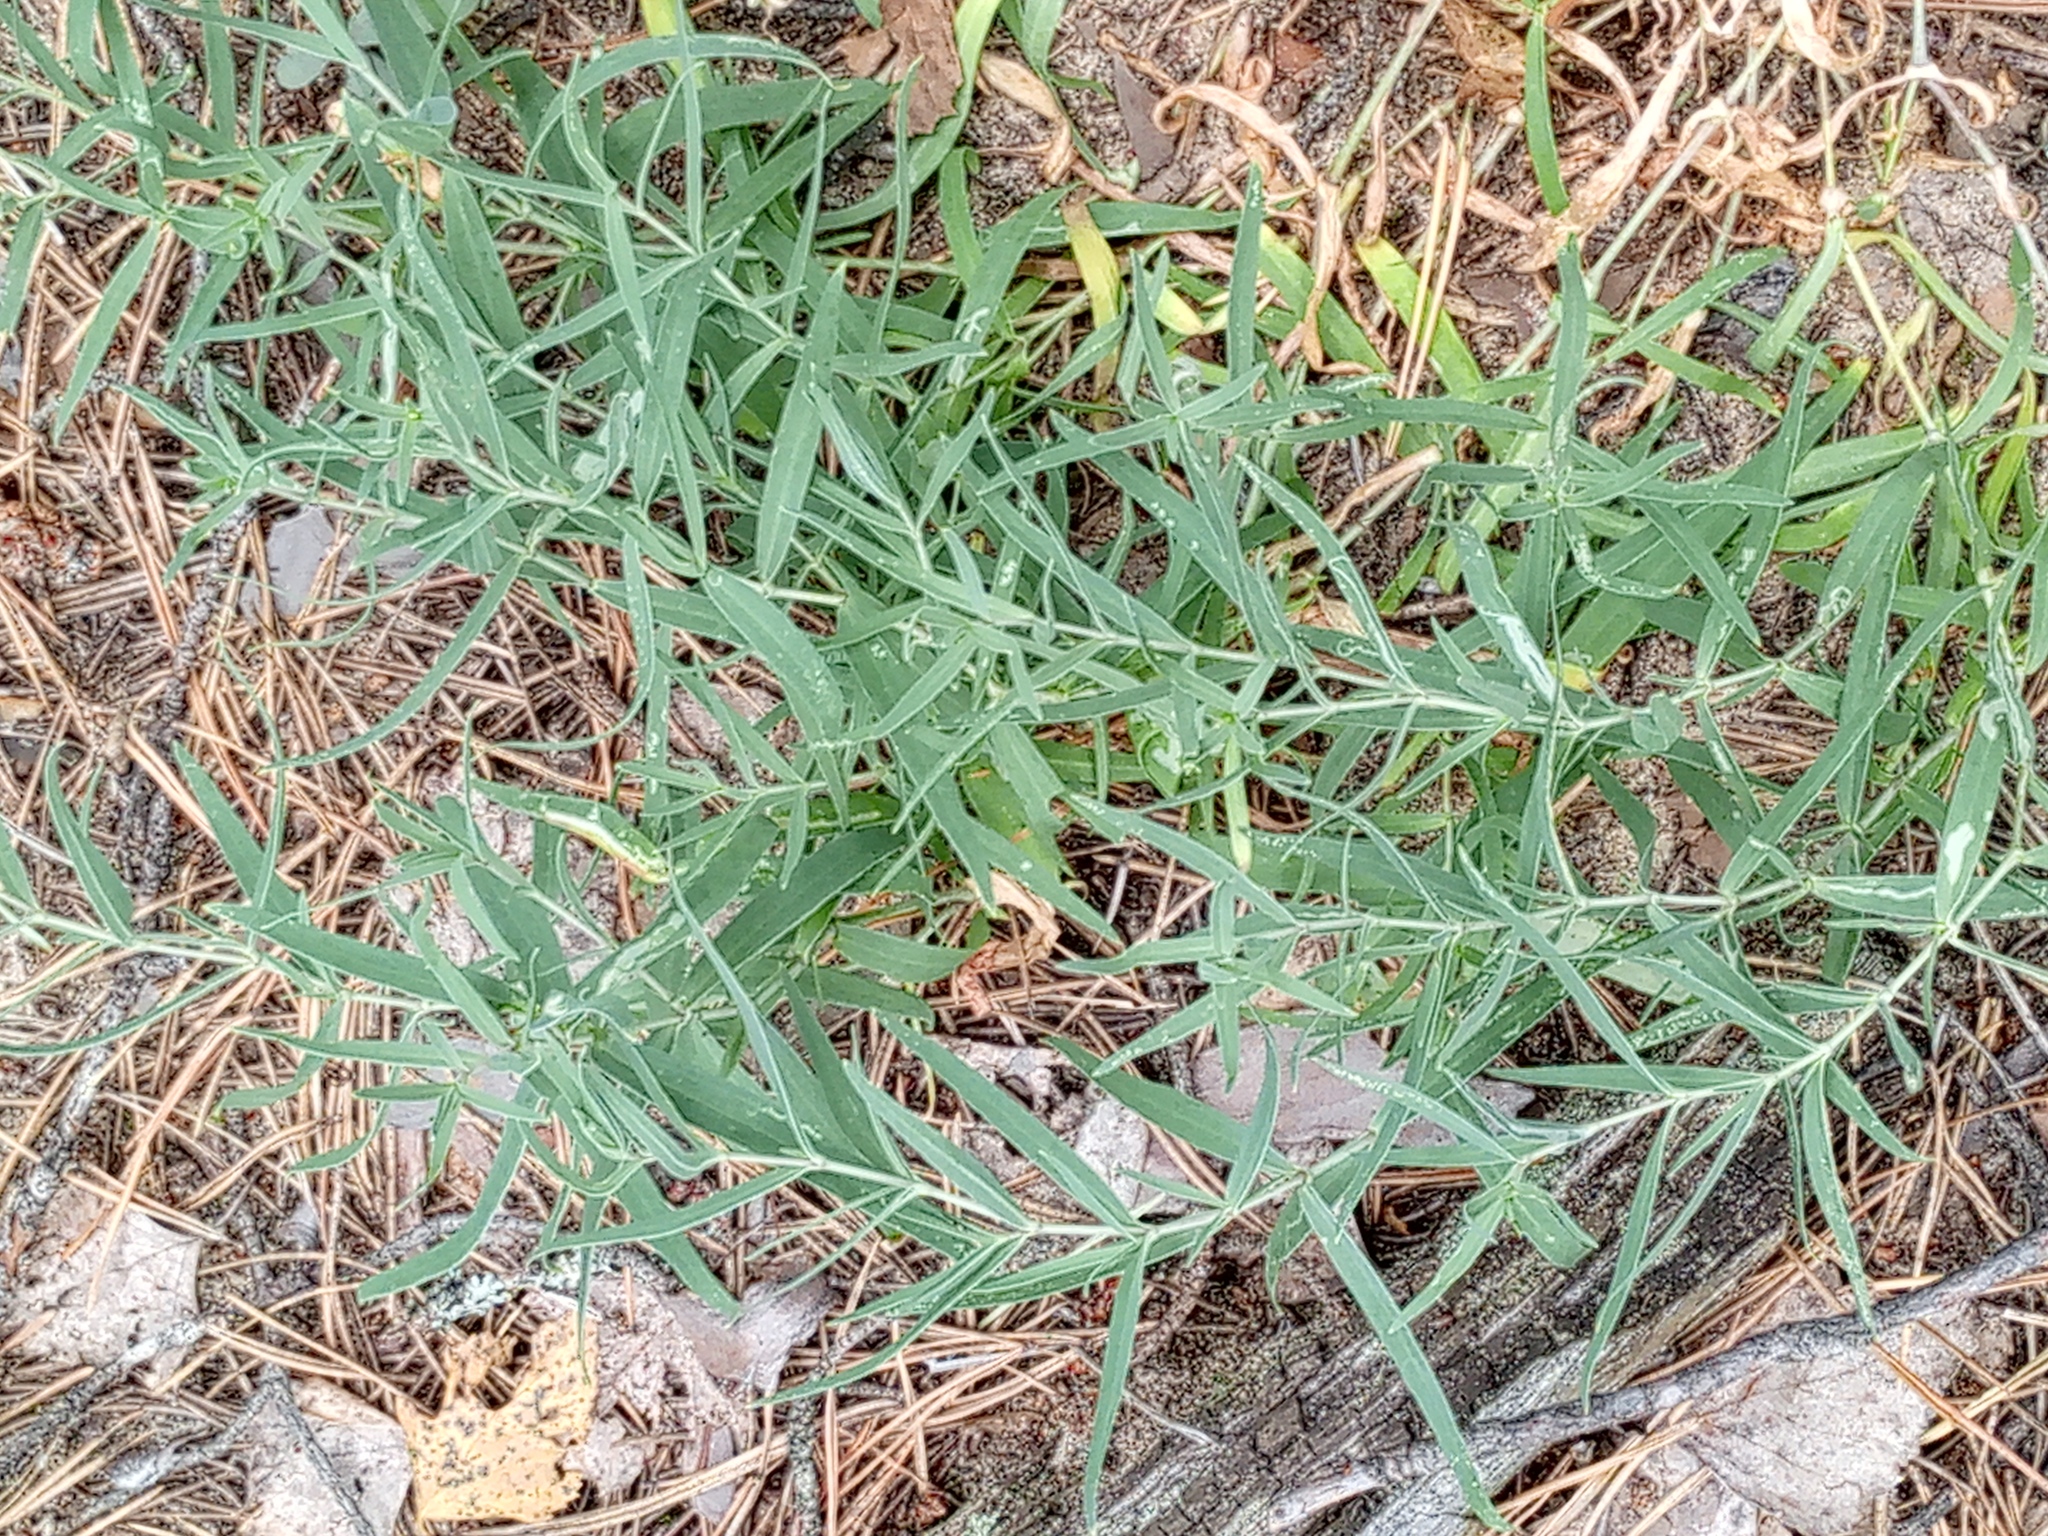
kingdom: Plantae
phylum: Tracheophyta
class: Magnoliopsida
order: Caryophyllales
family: Caryophyllaceae
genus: Gypsophila
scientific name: Gypsophila paniculata
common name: Baby's-breath
